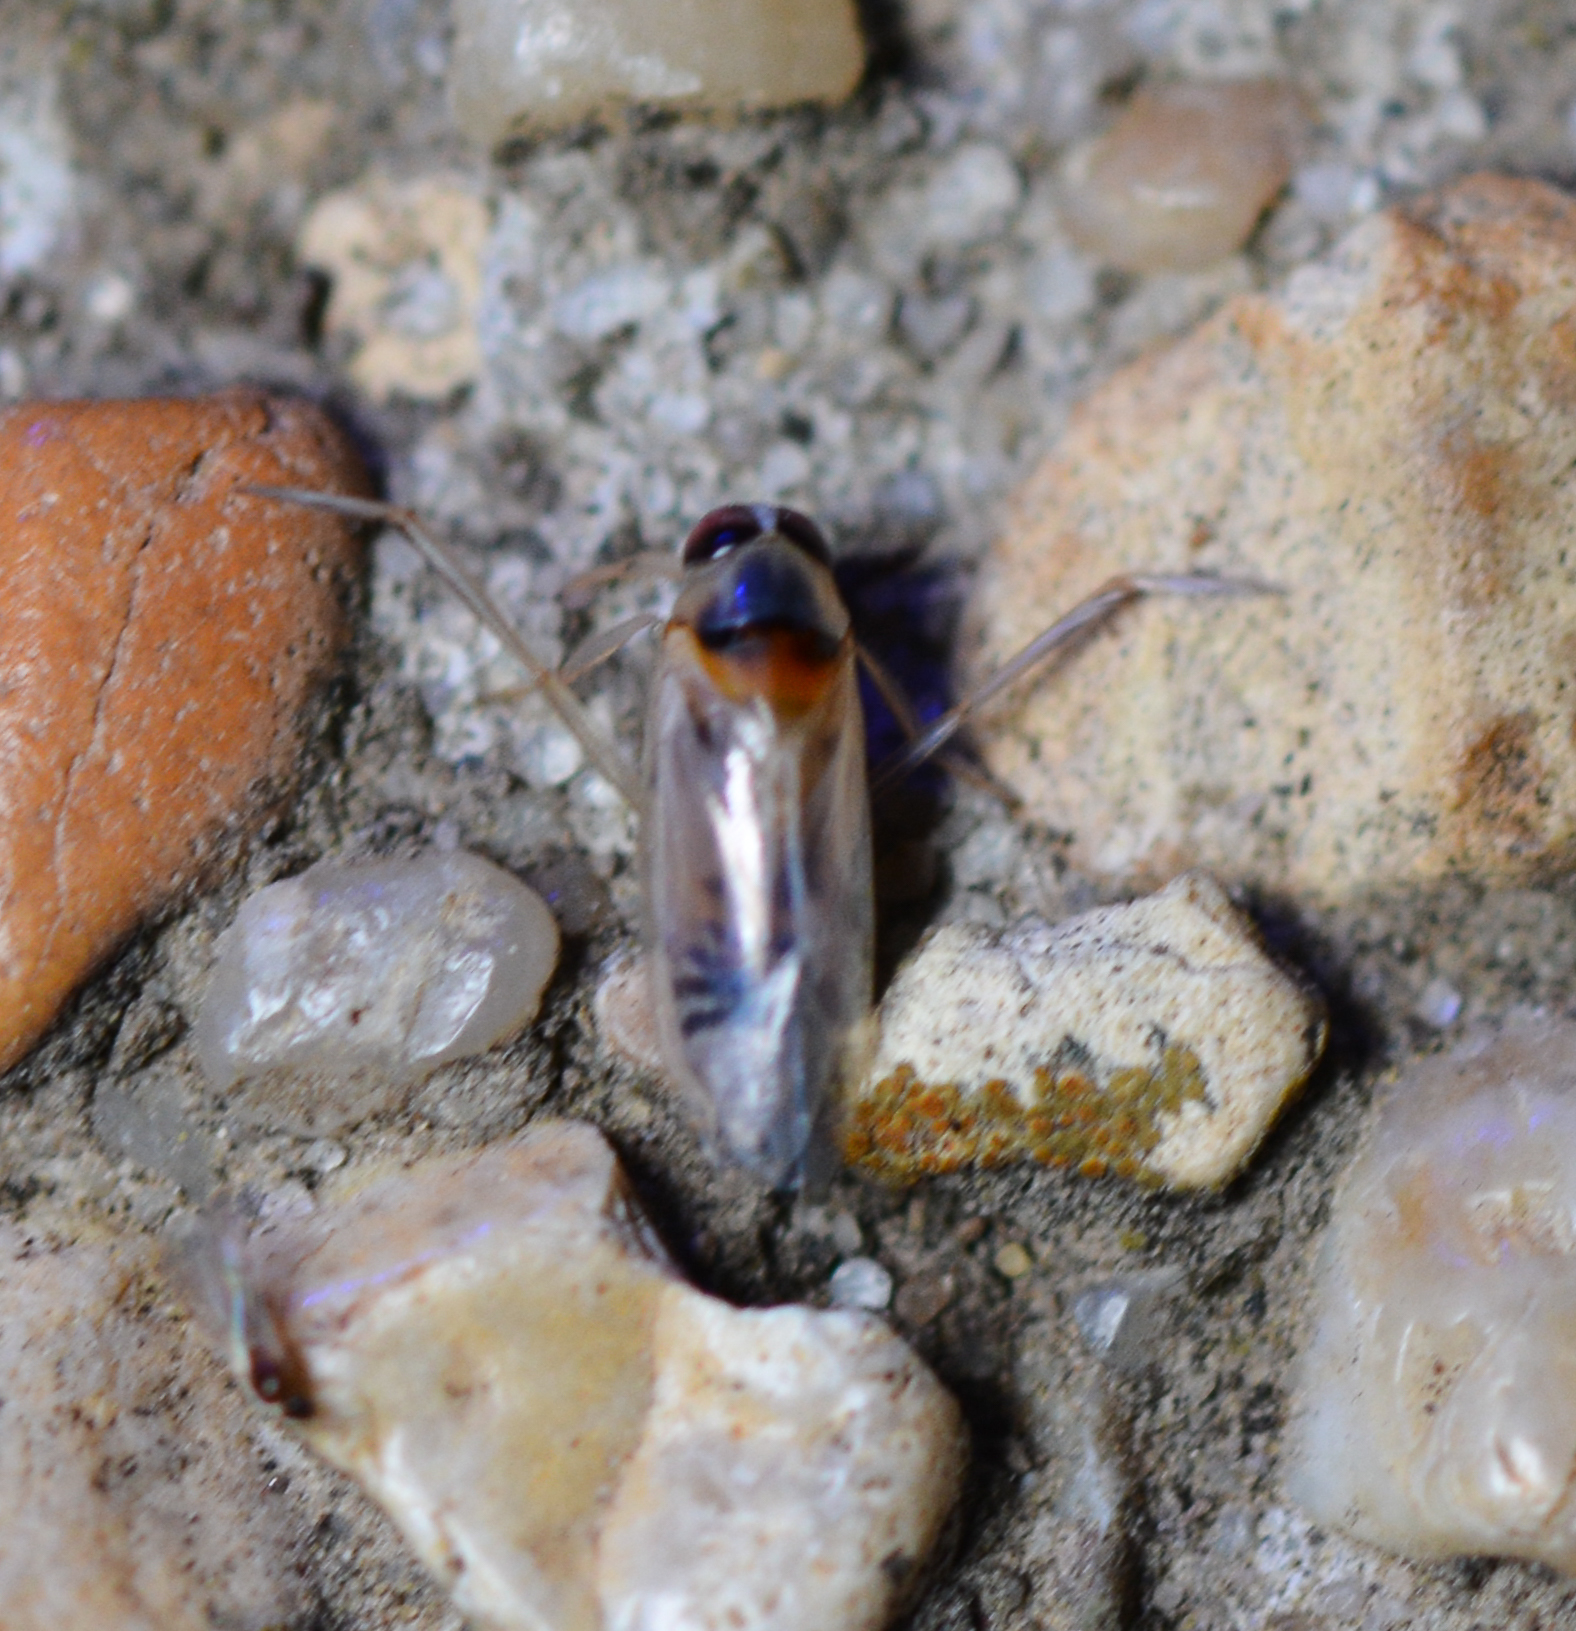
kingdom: Animalia
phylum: Arthropoda
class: Insecta
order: Hemiptera
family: Notonectidae
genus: Buenoa
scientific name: Buenoa
